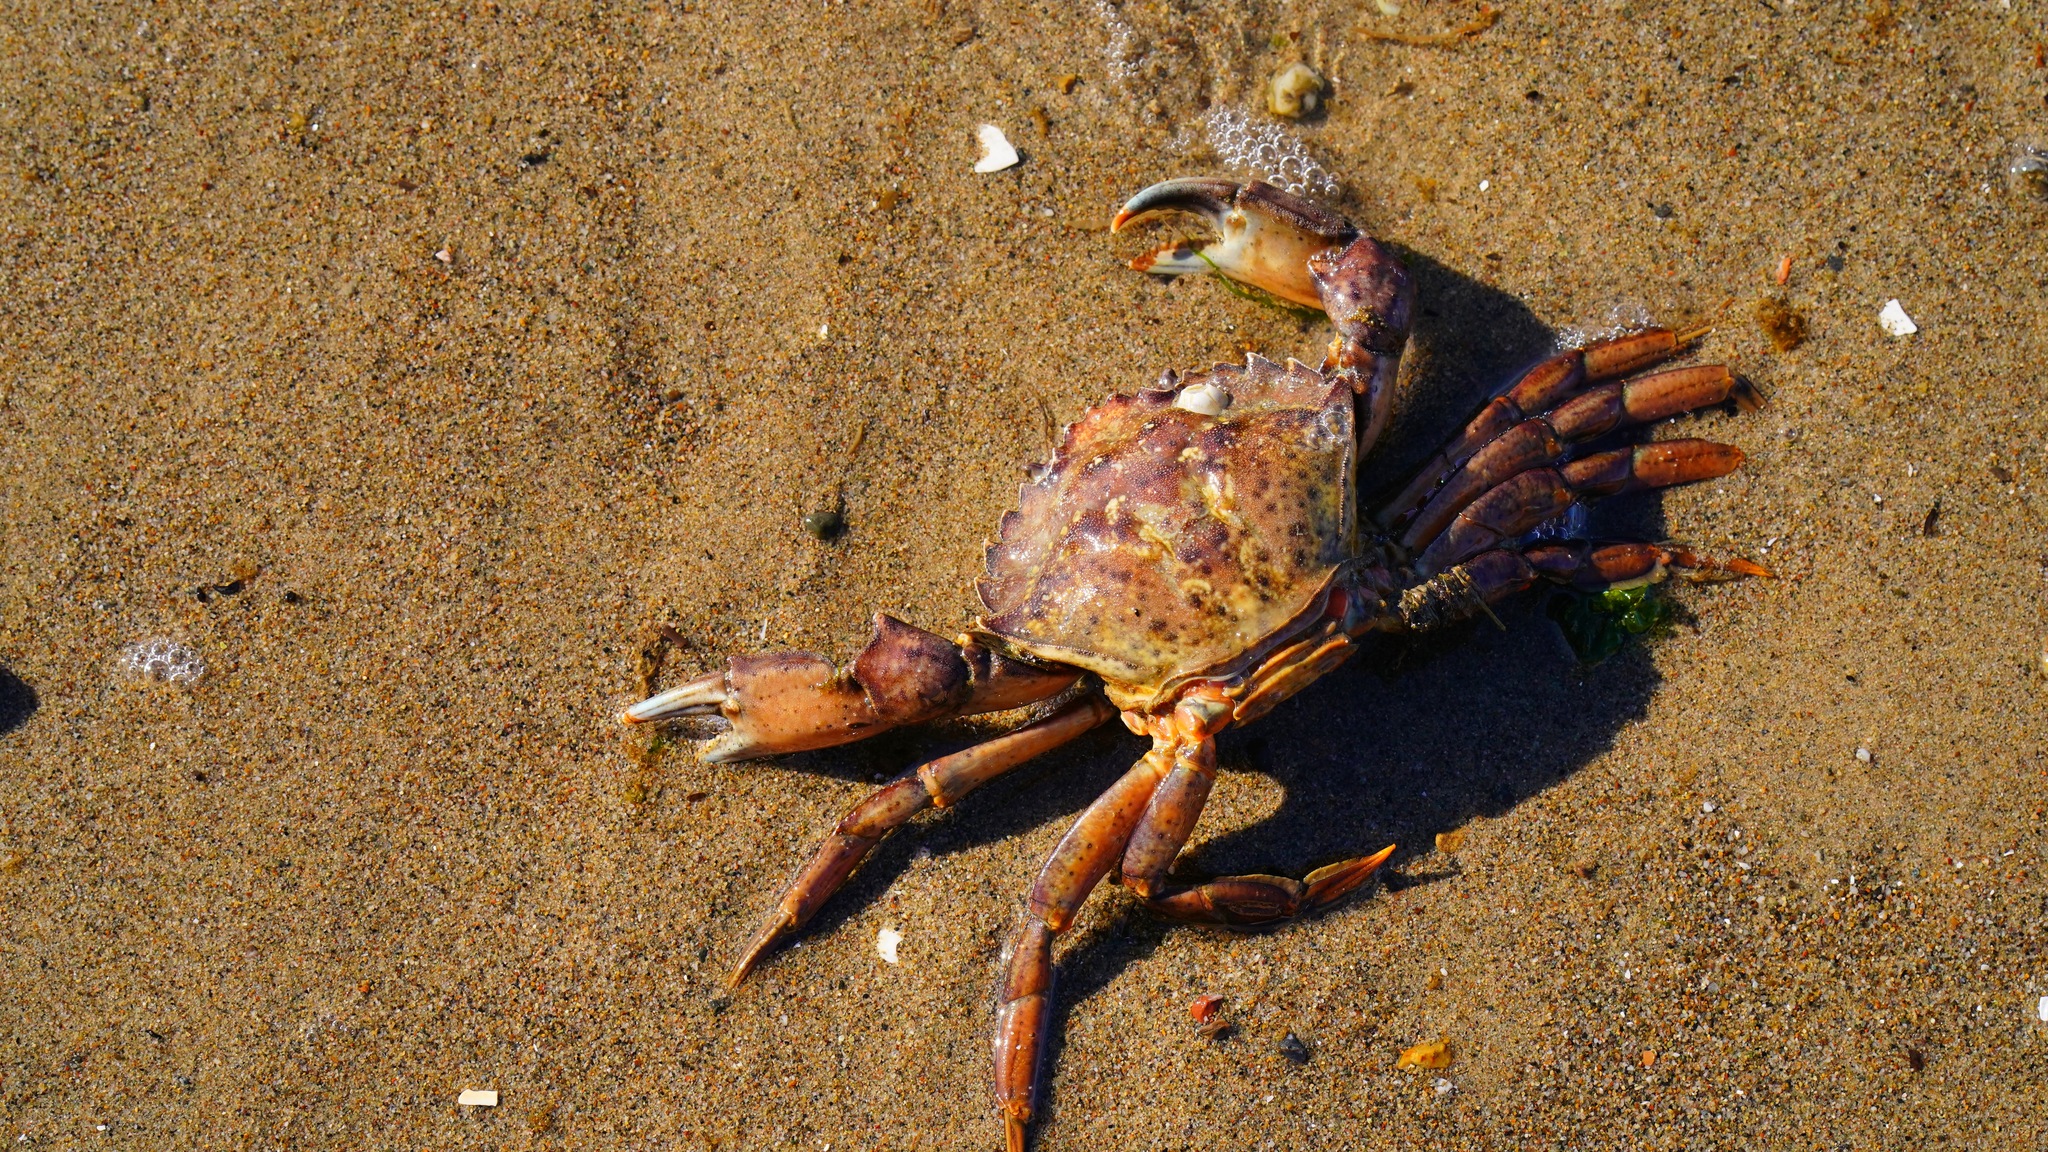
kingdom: Animalia
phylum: Arthropoda
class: Malacostraca
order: Decapoda
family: Carcinidae
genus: Carcinus
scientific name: Carcinus maenas
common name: European green crab
